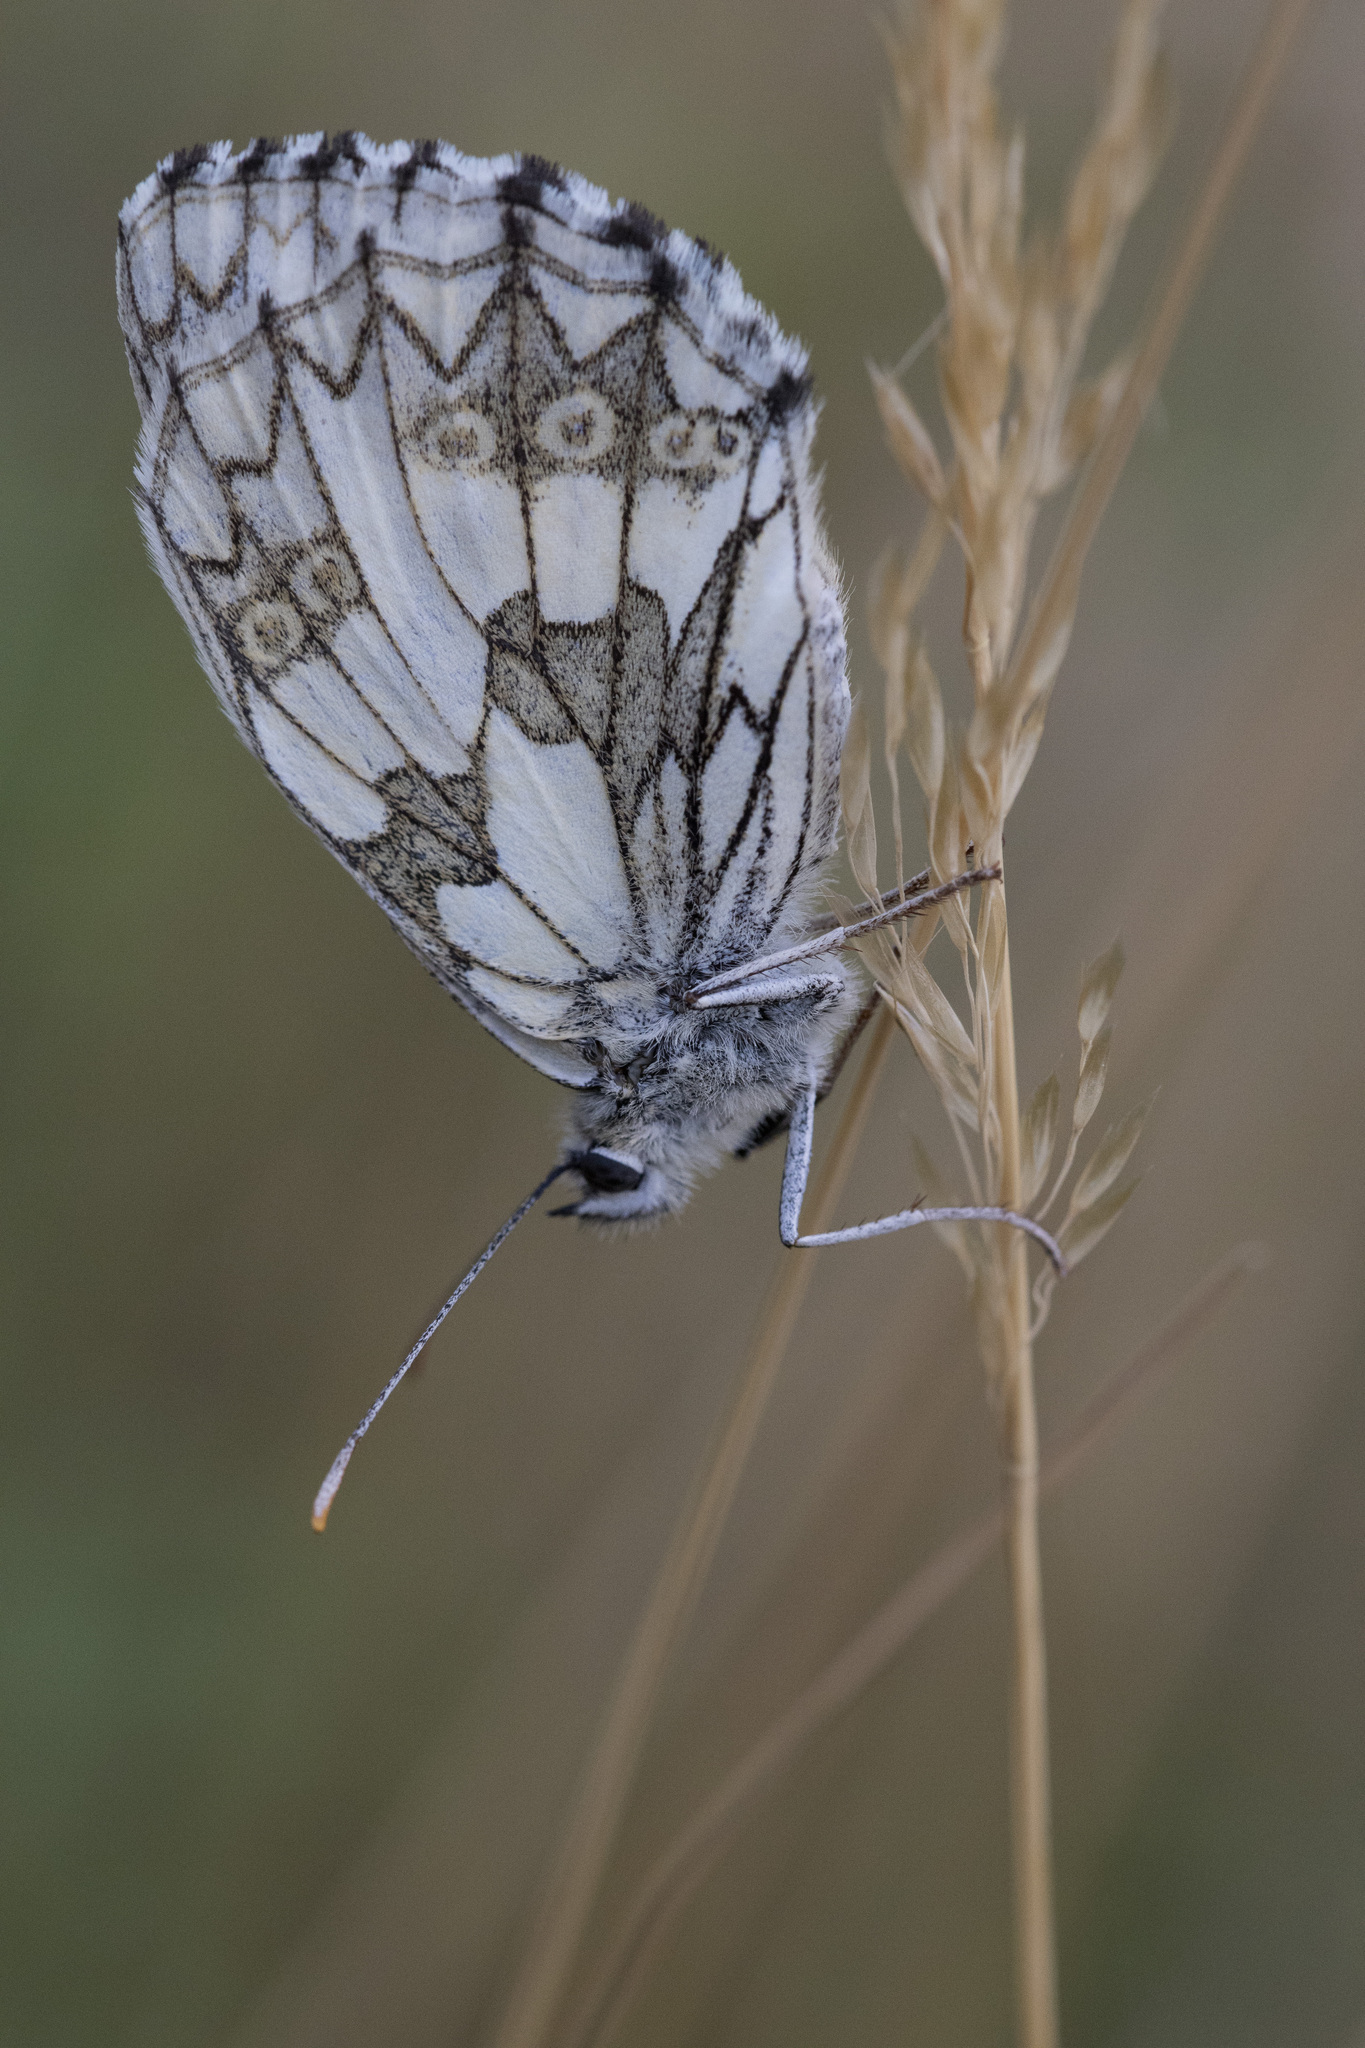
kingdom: Animalia
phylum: Arthropoda
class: Insecta
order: Lepidoptera
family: Nymphalidae
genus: Melanargia
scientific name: Melanargia galathea
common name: Marbled white
